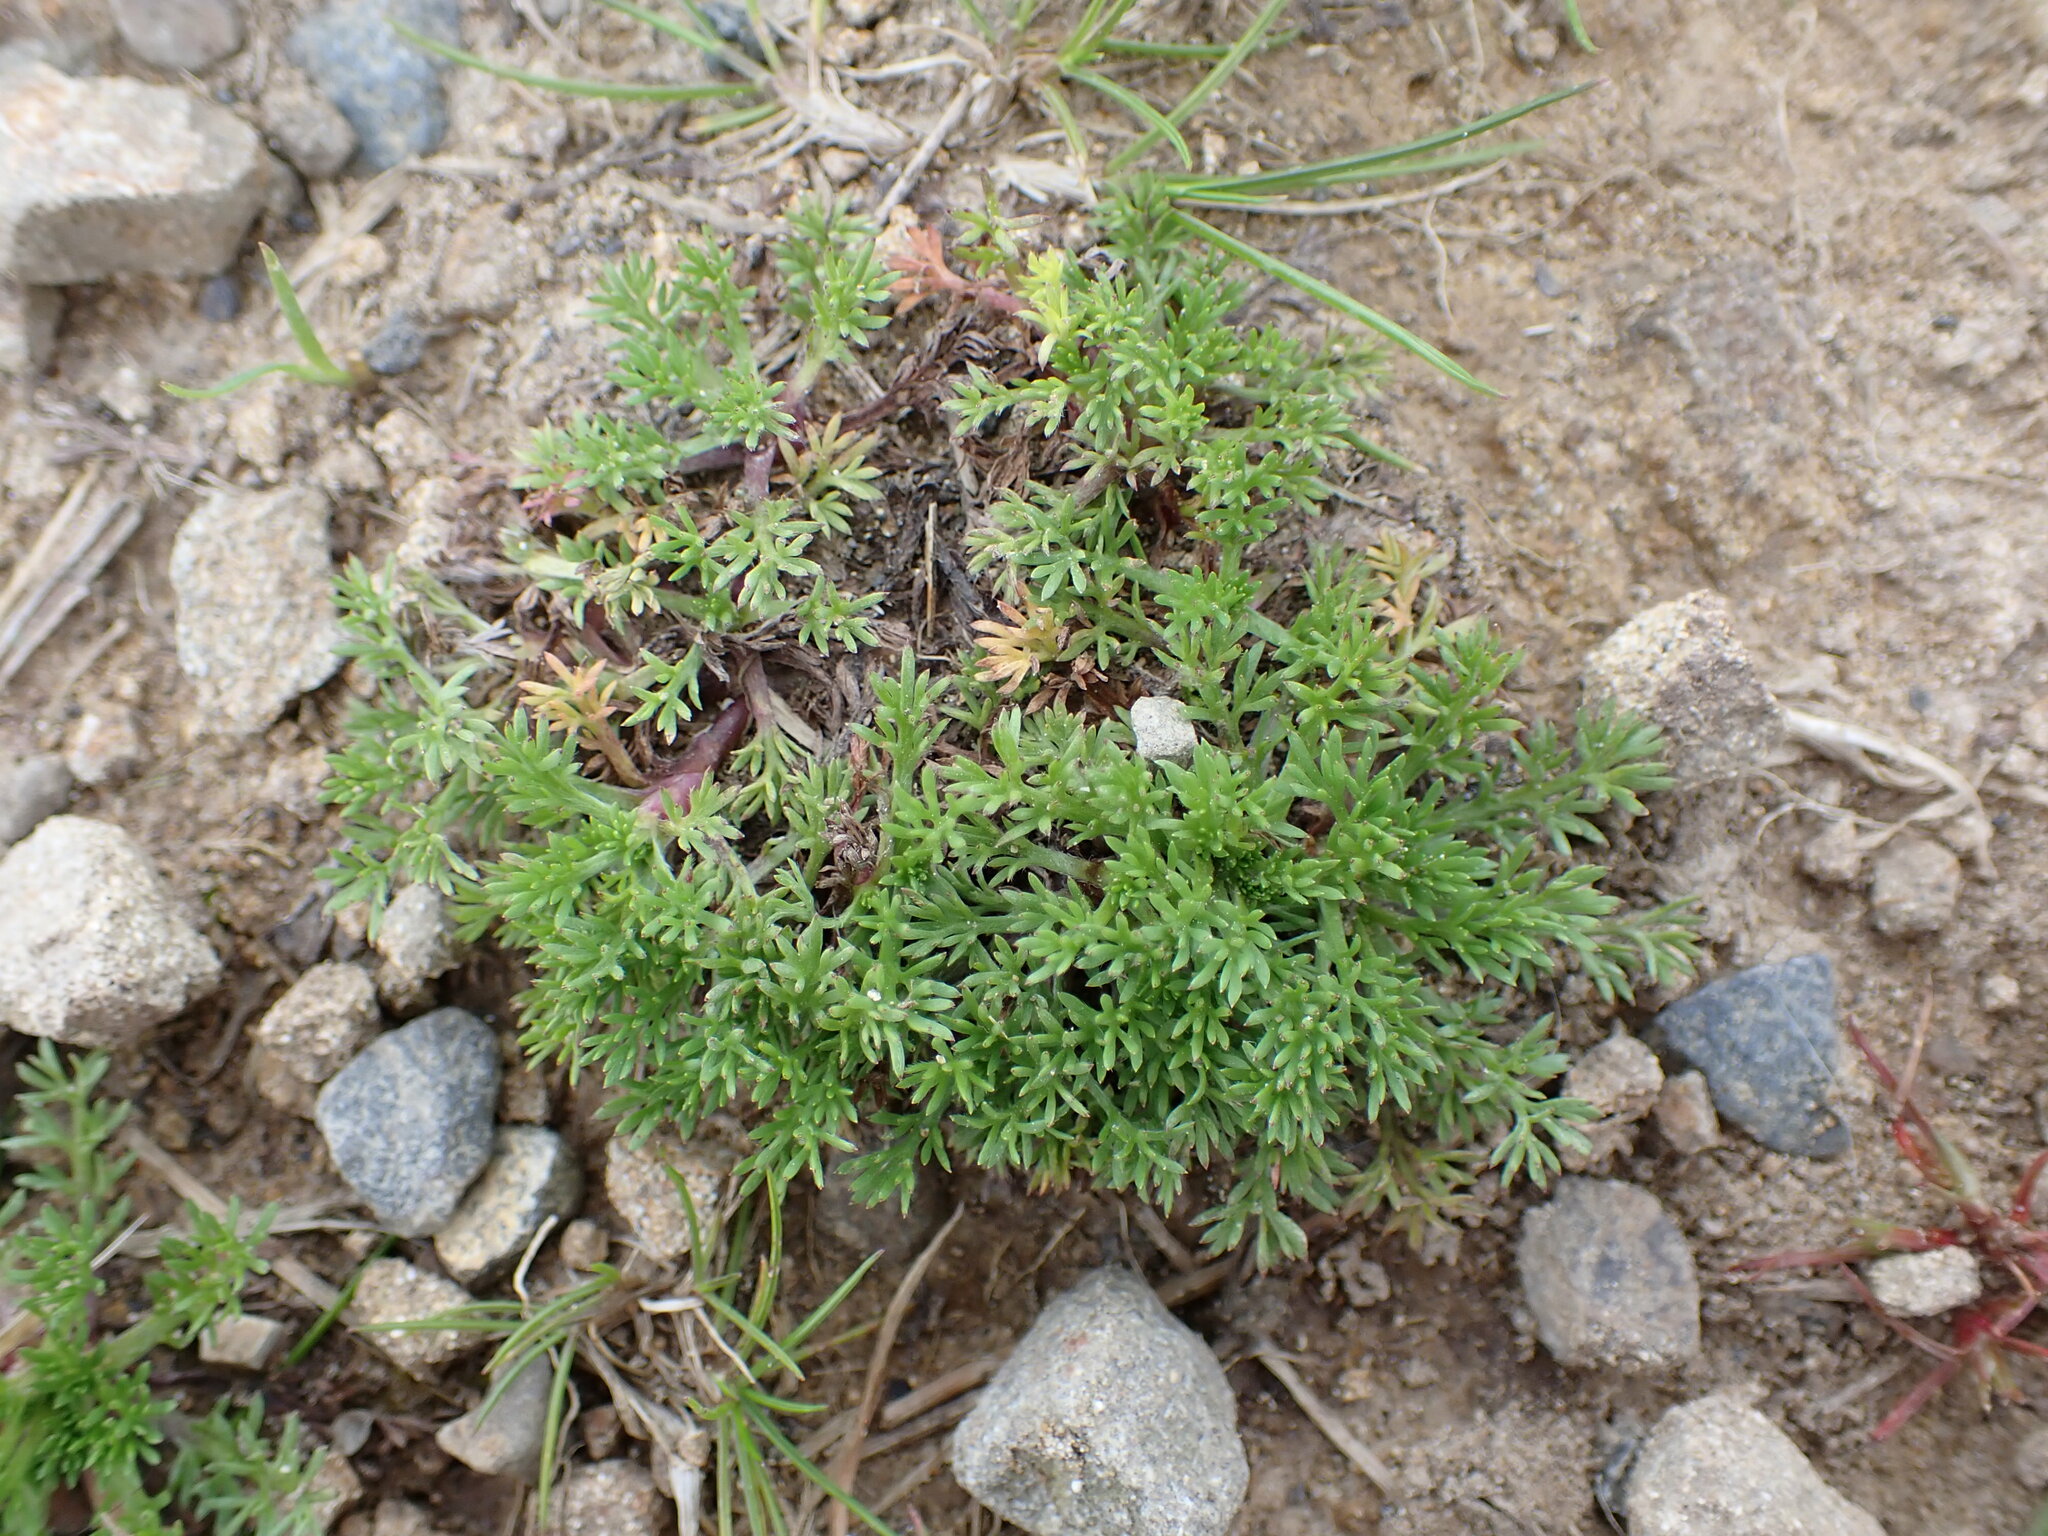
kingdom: Plantae
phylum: Tracheophyta
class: Magnoliopsida
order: Asterales
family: Asteraceae
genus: Soliva
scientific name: Soliva sessilis
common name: Field burrweed
